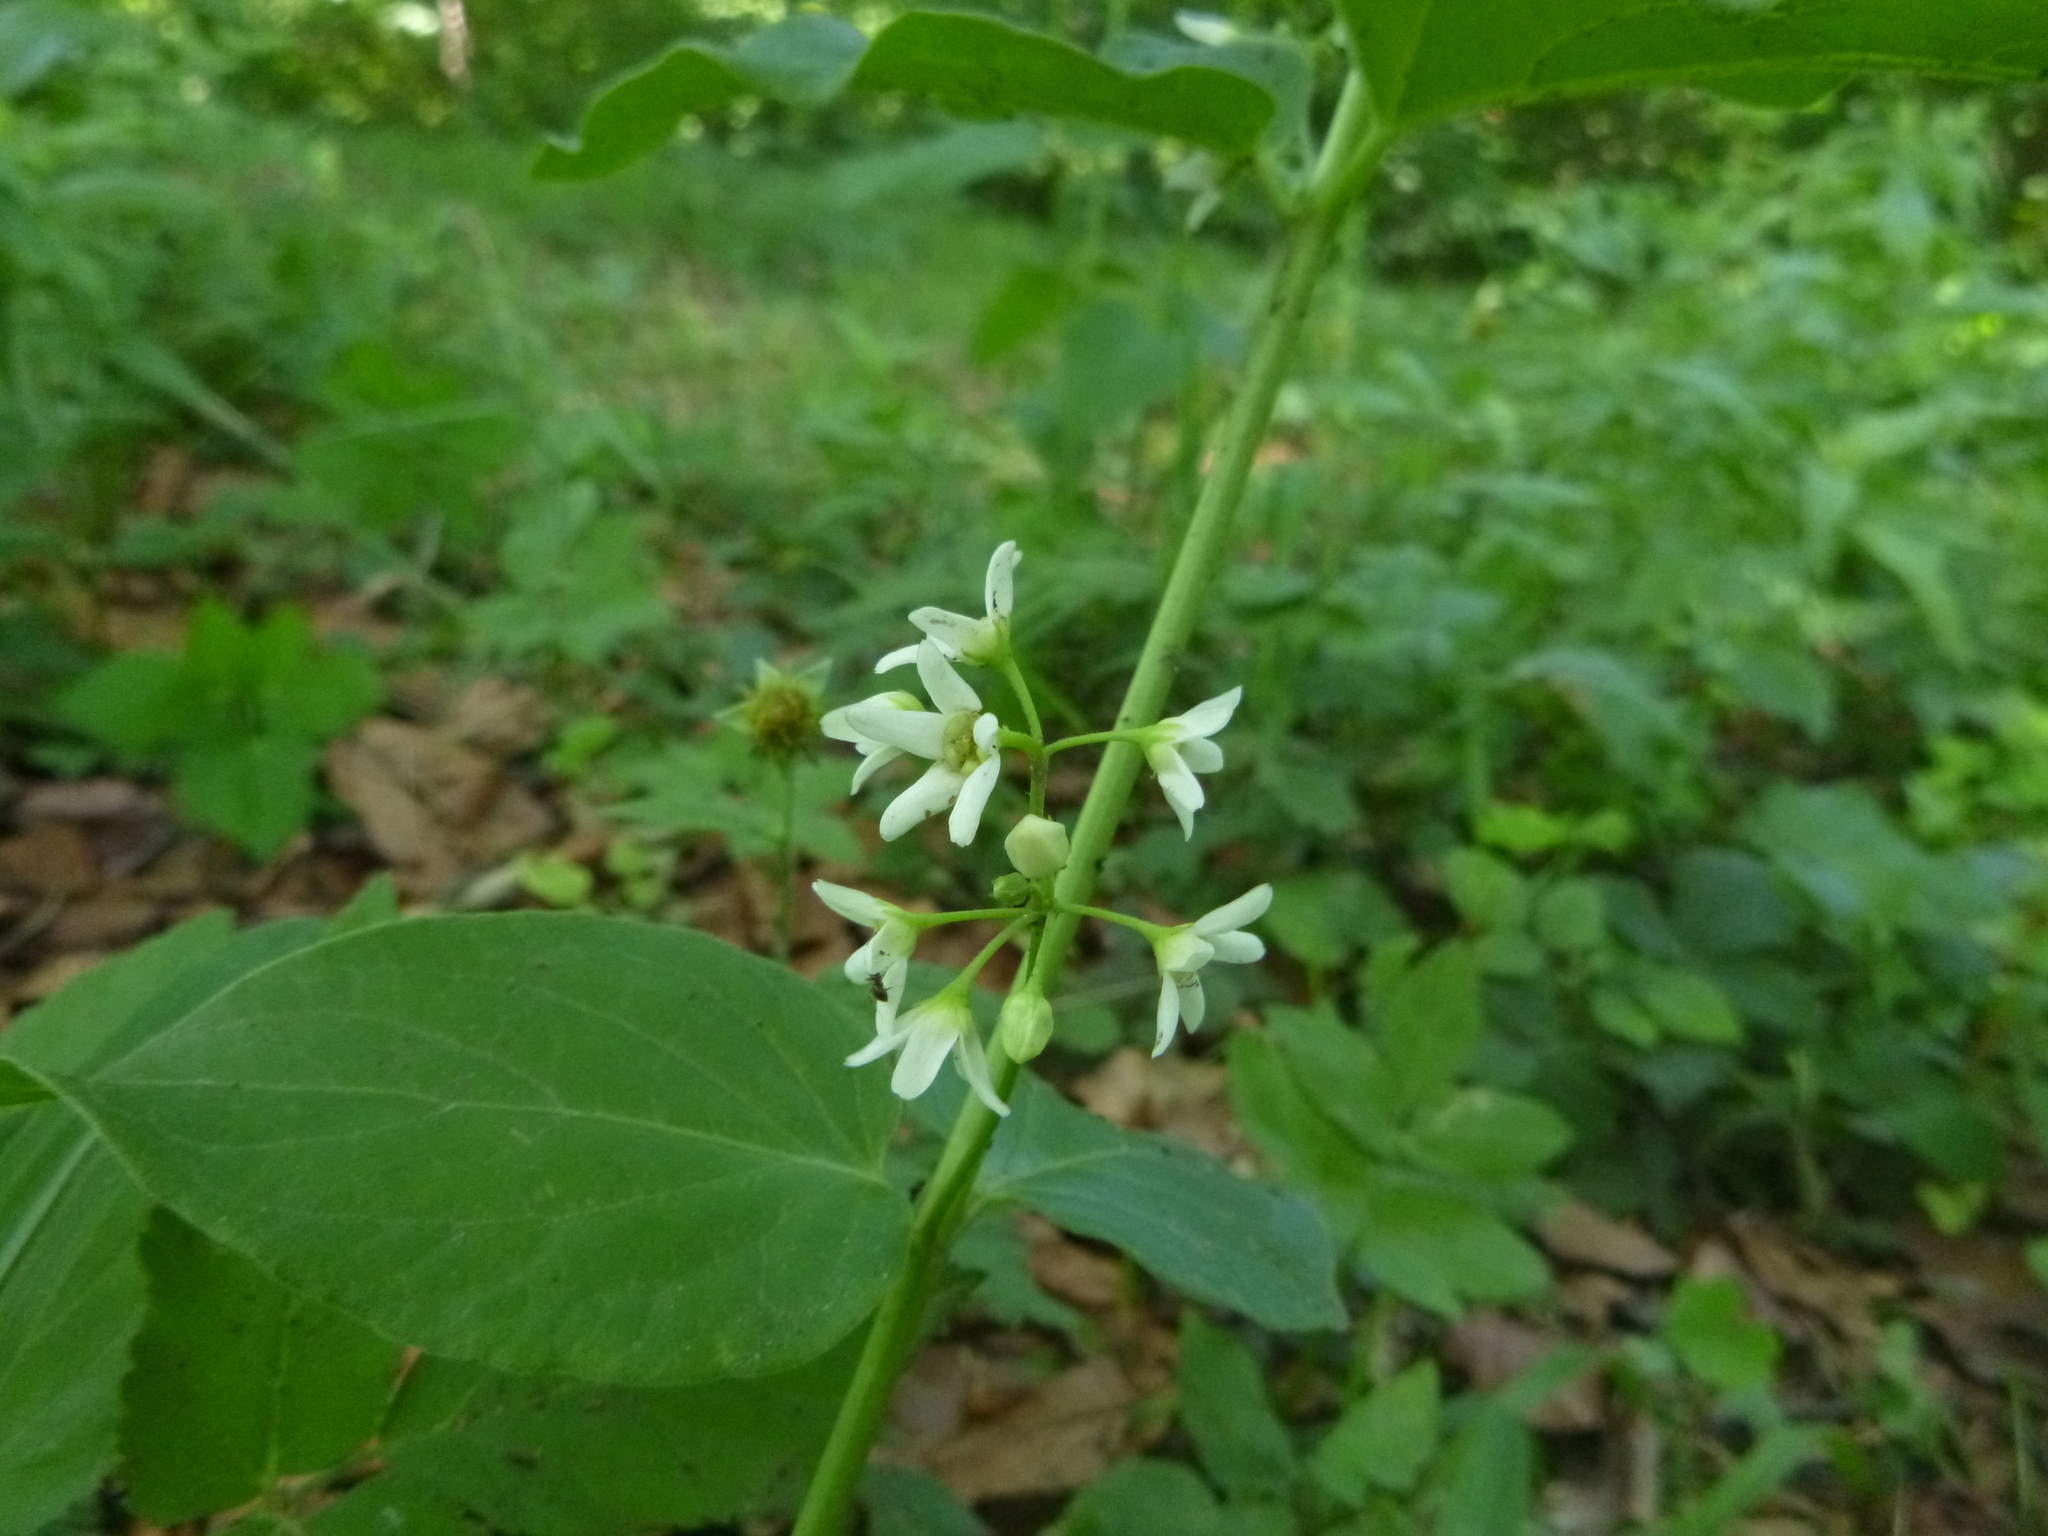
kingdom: Plantae
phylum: Tracheophyta
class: Magnoliopsida
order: Gentianales
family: Apocynaceae
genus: Vincetoxicum
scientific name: Vincetoxicum hirundinaria
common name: White swallowwort
